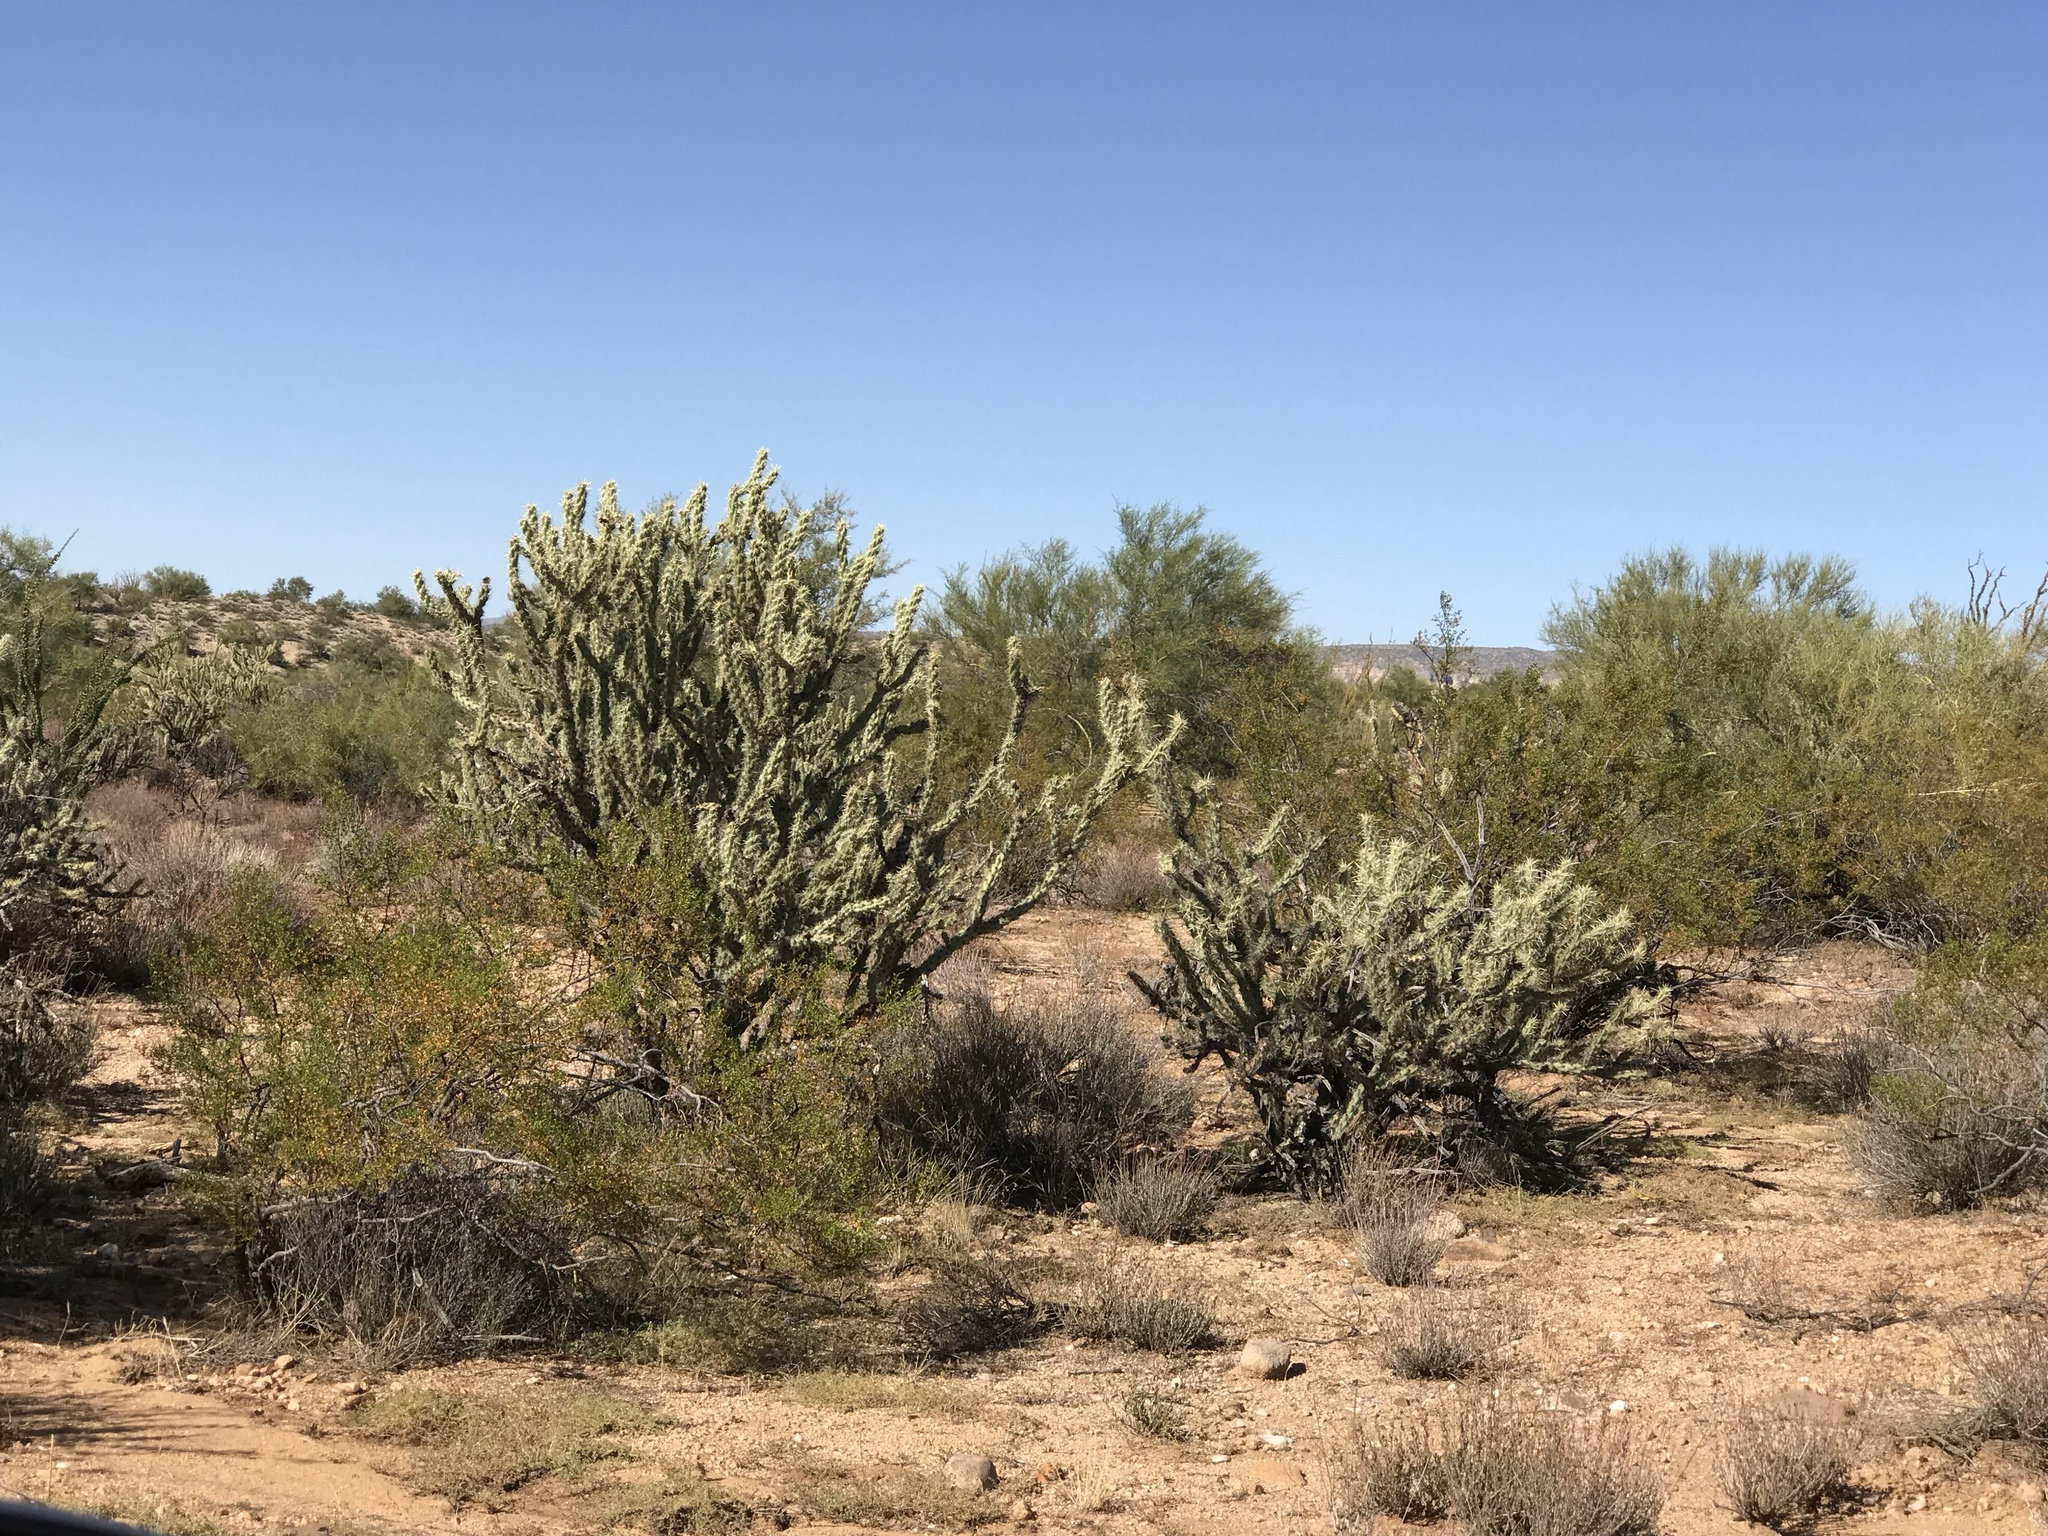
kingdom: Plantae
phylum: Tracheophyta
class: Magnoliopsida
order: Caryophyllales
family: Cactaceae
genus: Cylindropuntia
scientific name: Cylindropuntia acanthocarpa
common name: Buckhorn cholla
